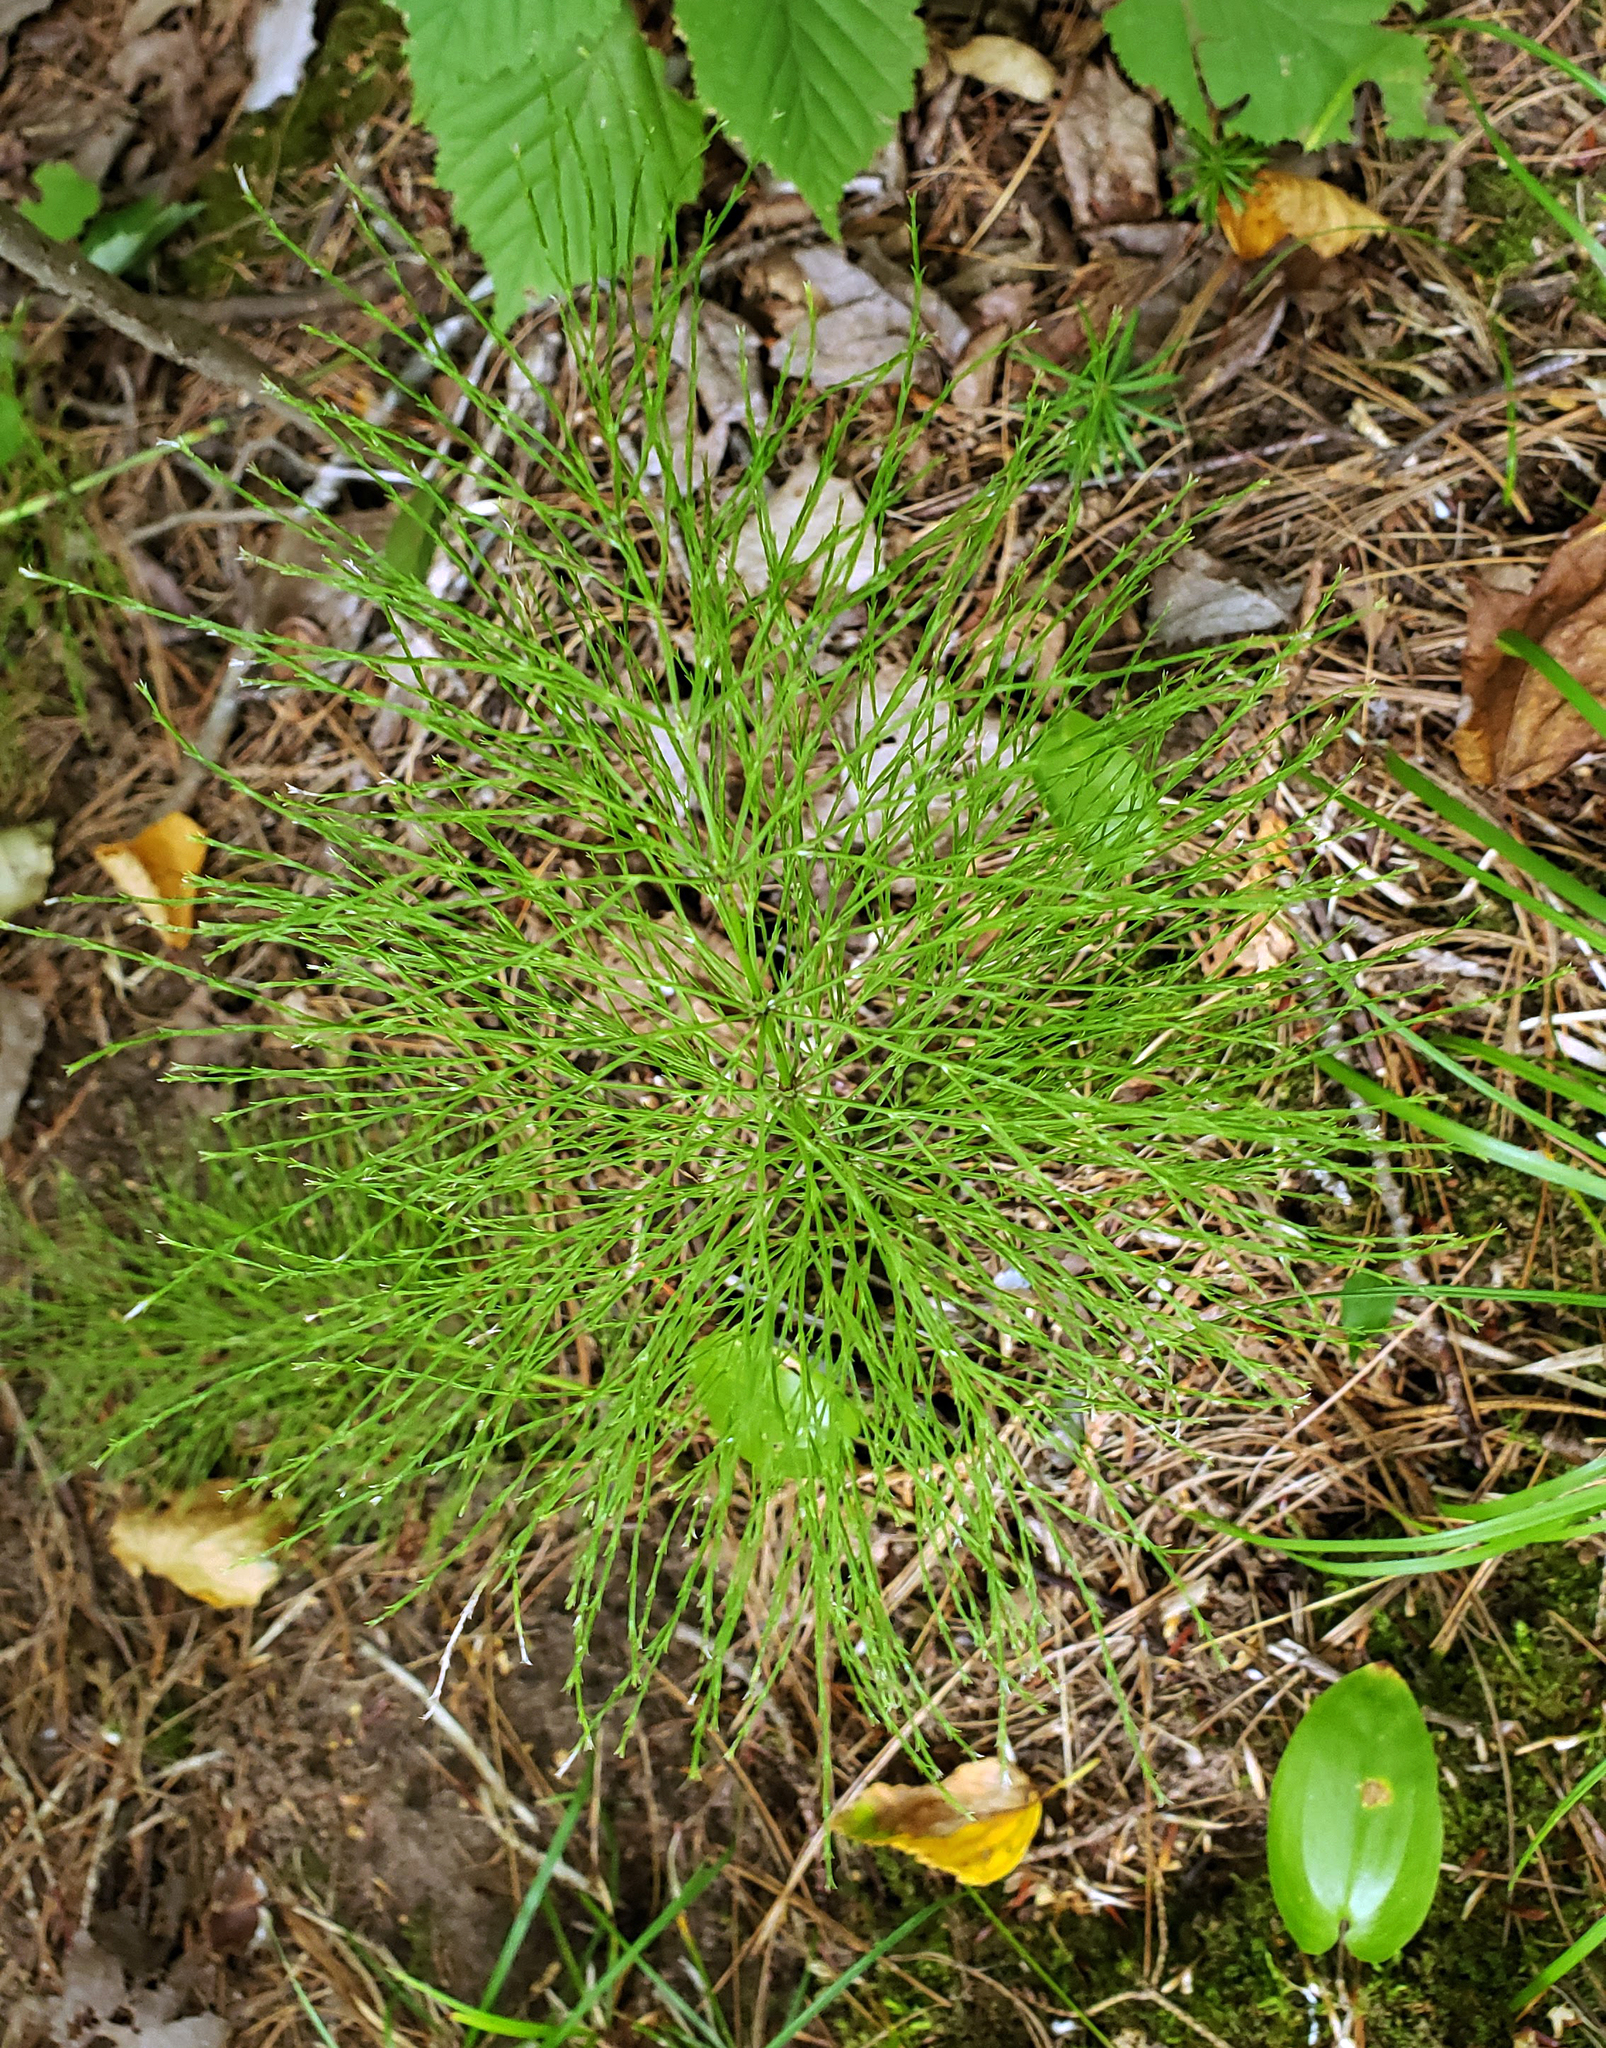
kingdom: Plantae
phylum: Tracheophyta
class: Polypodiopsida
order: Equisetales
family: Equisetaceae
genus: Equisetum
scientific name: Equisetum sylvaticum
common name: Wood horsetail
